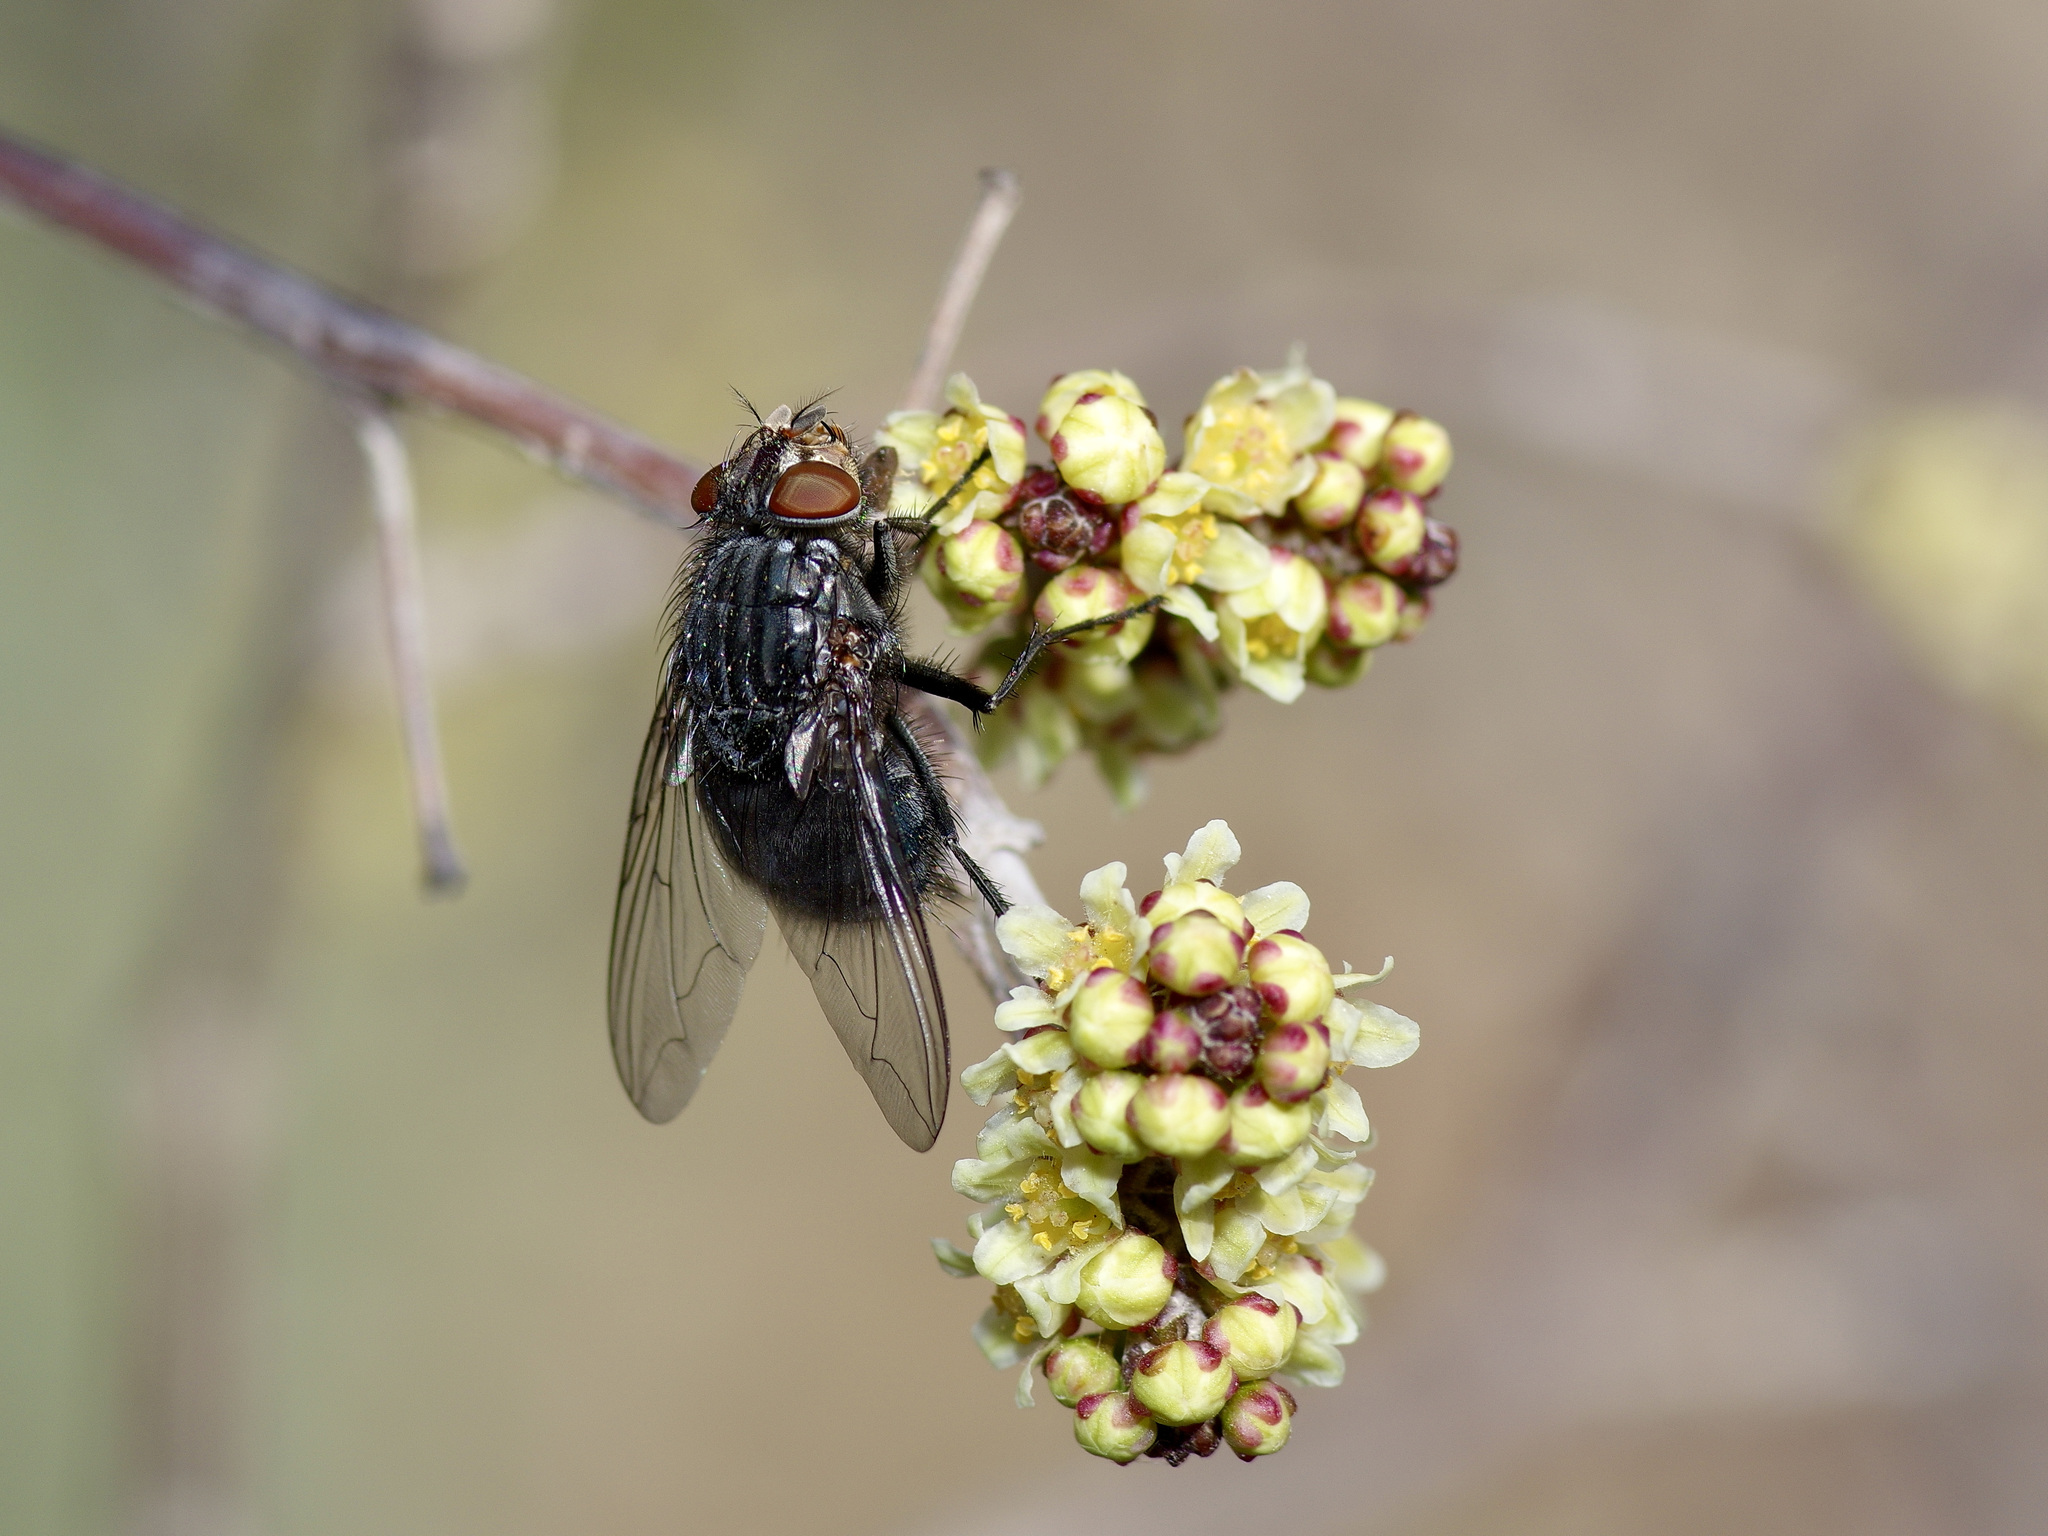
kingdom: Animalia
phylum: Arthropoda
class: Insecta
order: Diptera
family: Calliphoridae
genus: Calliphora
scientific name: Calliphora vicina
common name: Common blow flie
